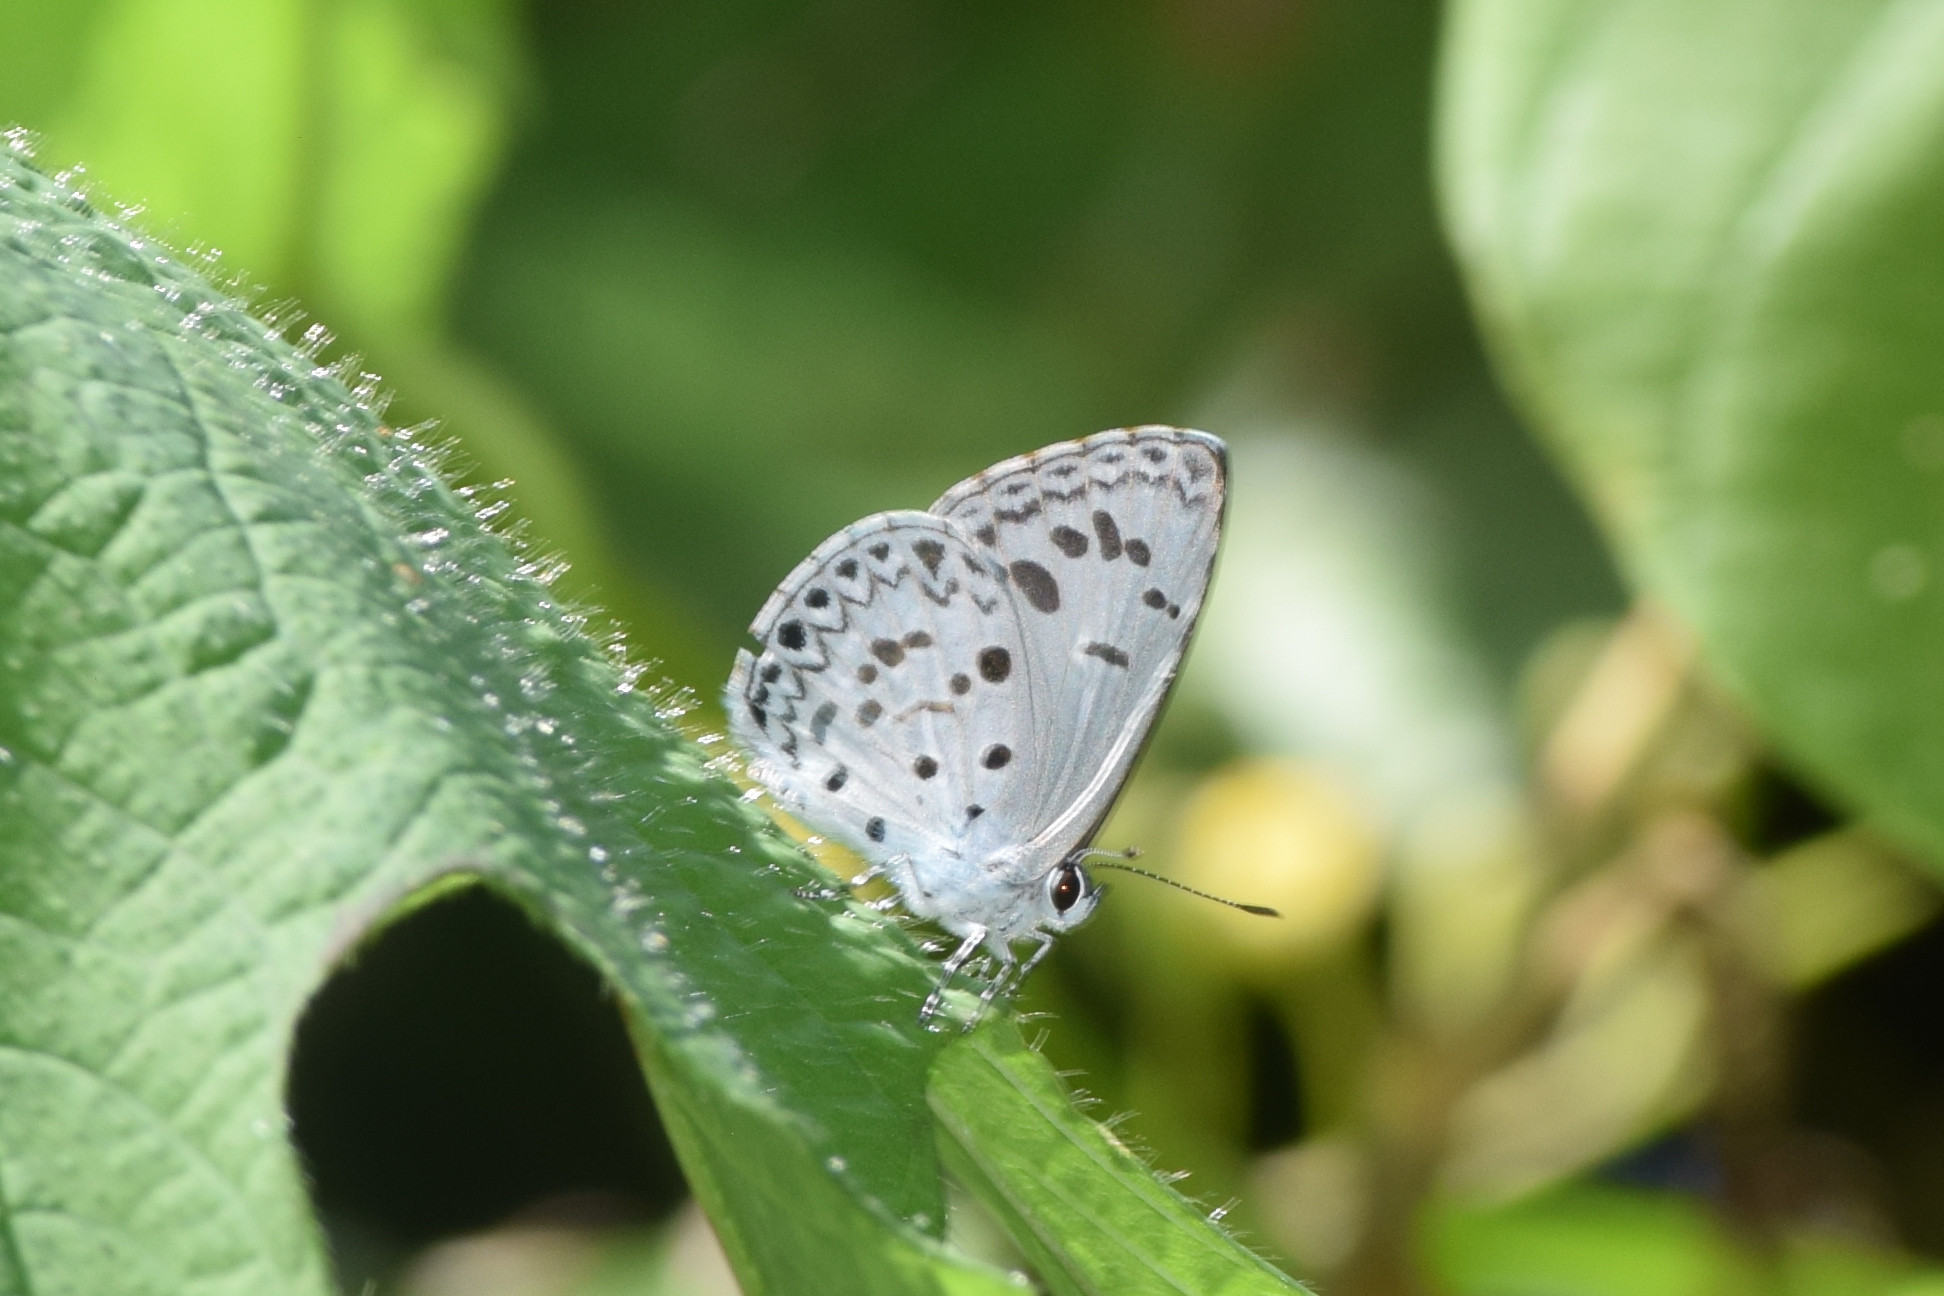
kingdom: Animalia
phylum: Arthropoda
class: Insecta
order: Lepidoptera
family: Lycaenidae
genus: Acytolepis
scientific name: Acytolepis puspa
